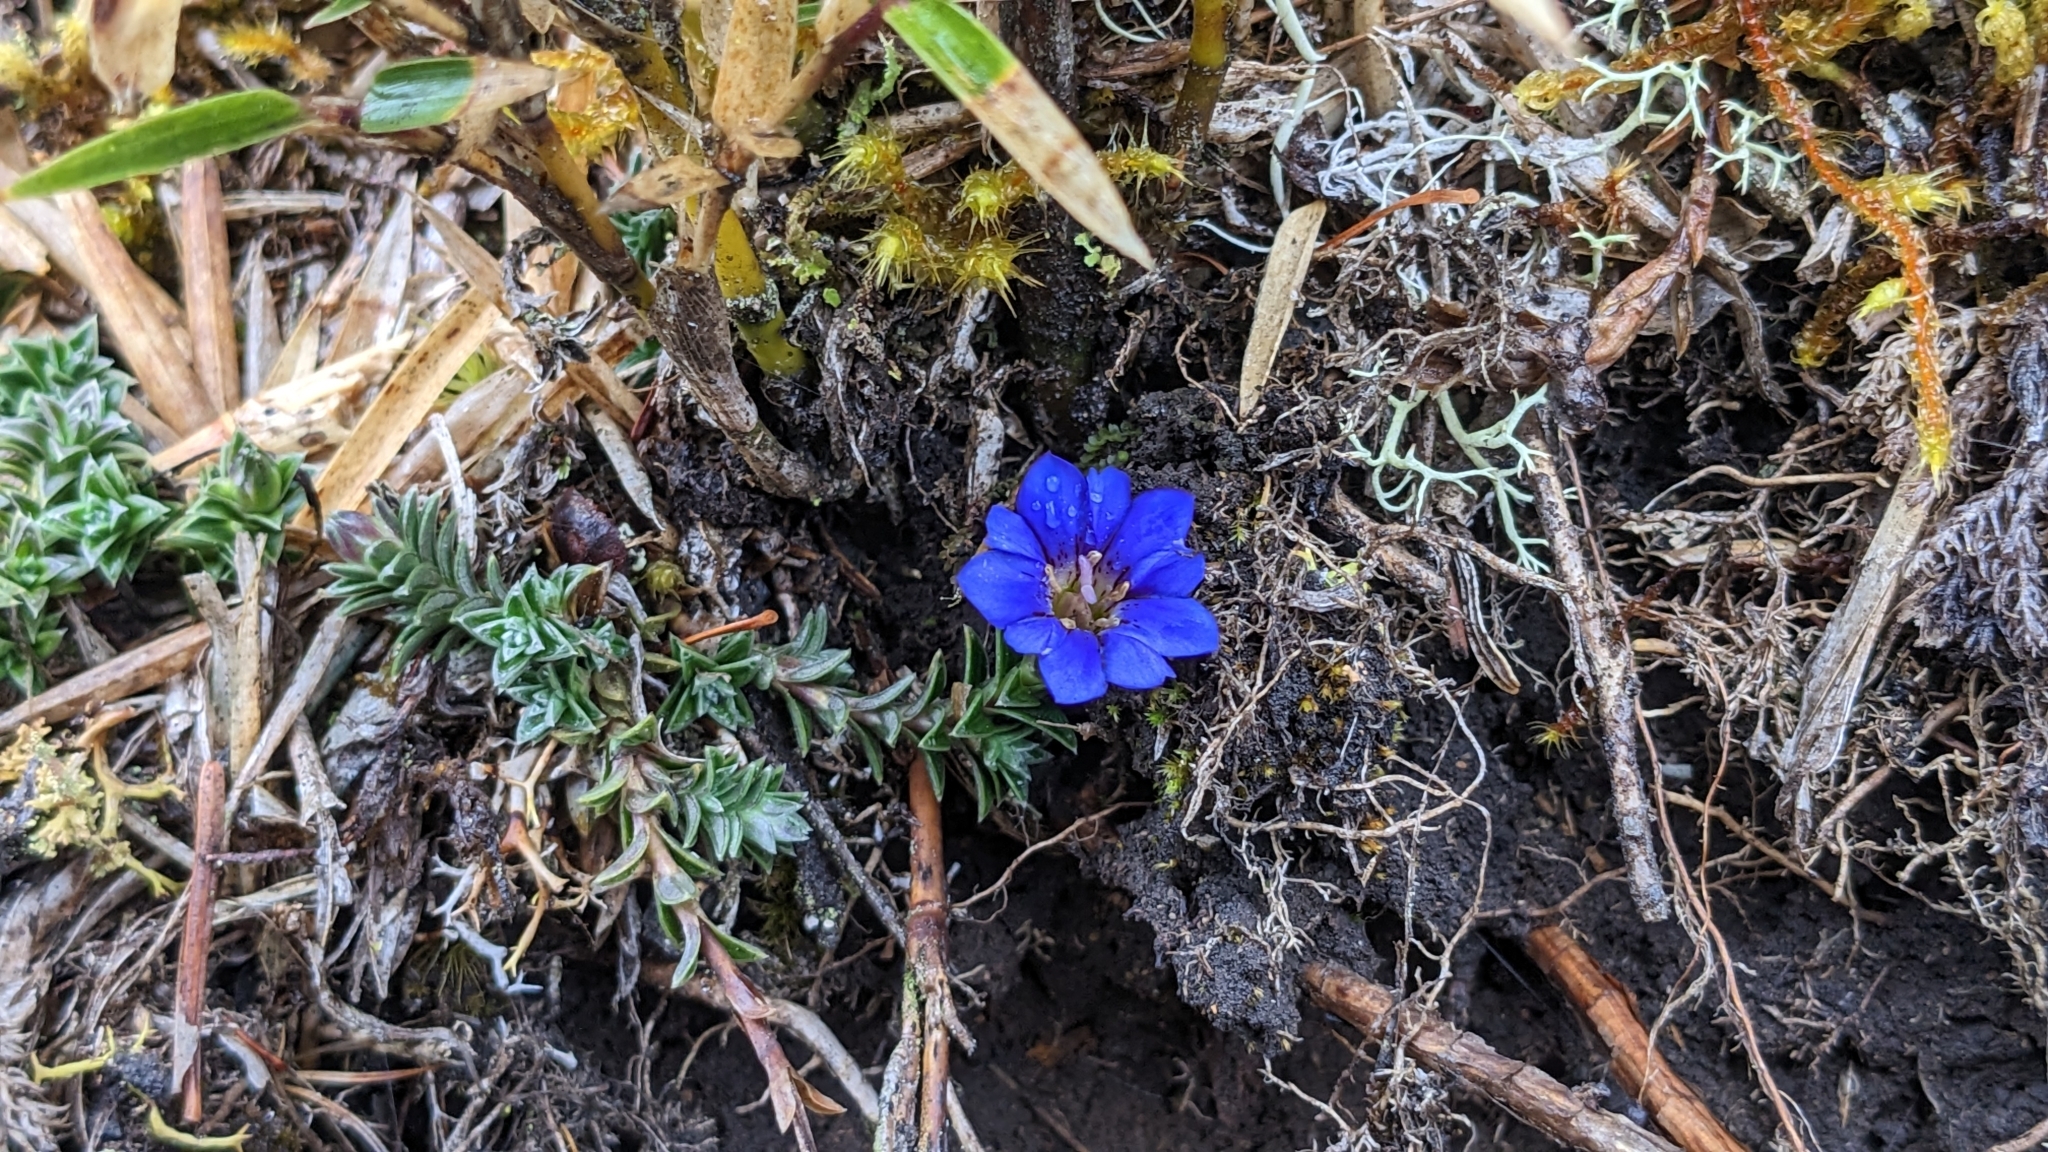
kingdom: Plantae
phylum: Tracheophyta
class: Magnoliopsida
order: Gentianales
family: Gentianaceae
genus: Gentiana
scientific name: Gentiana arisanensis
